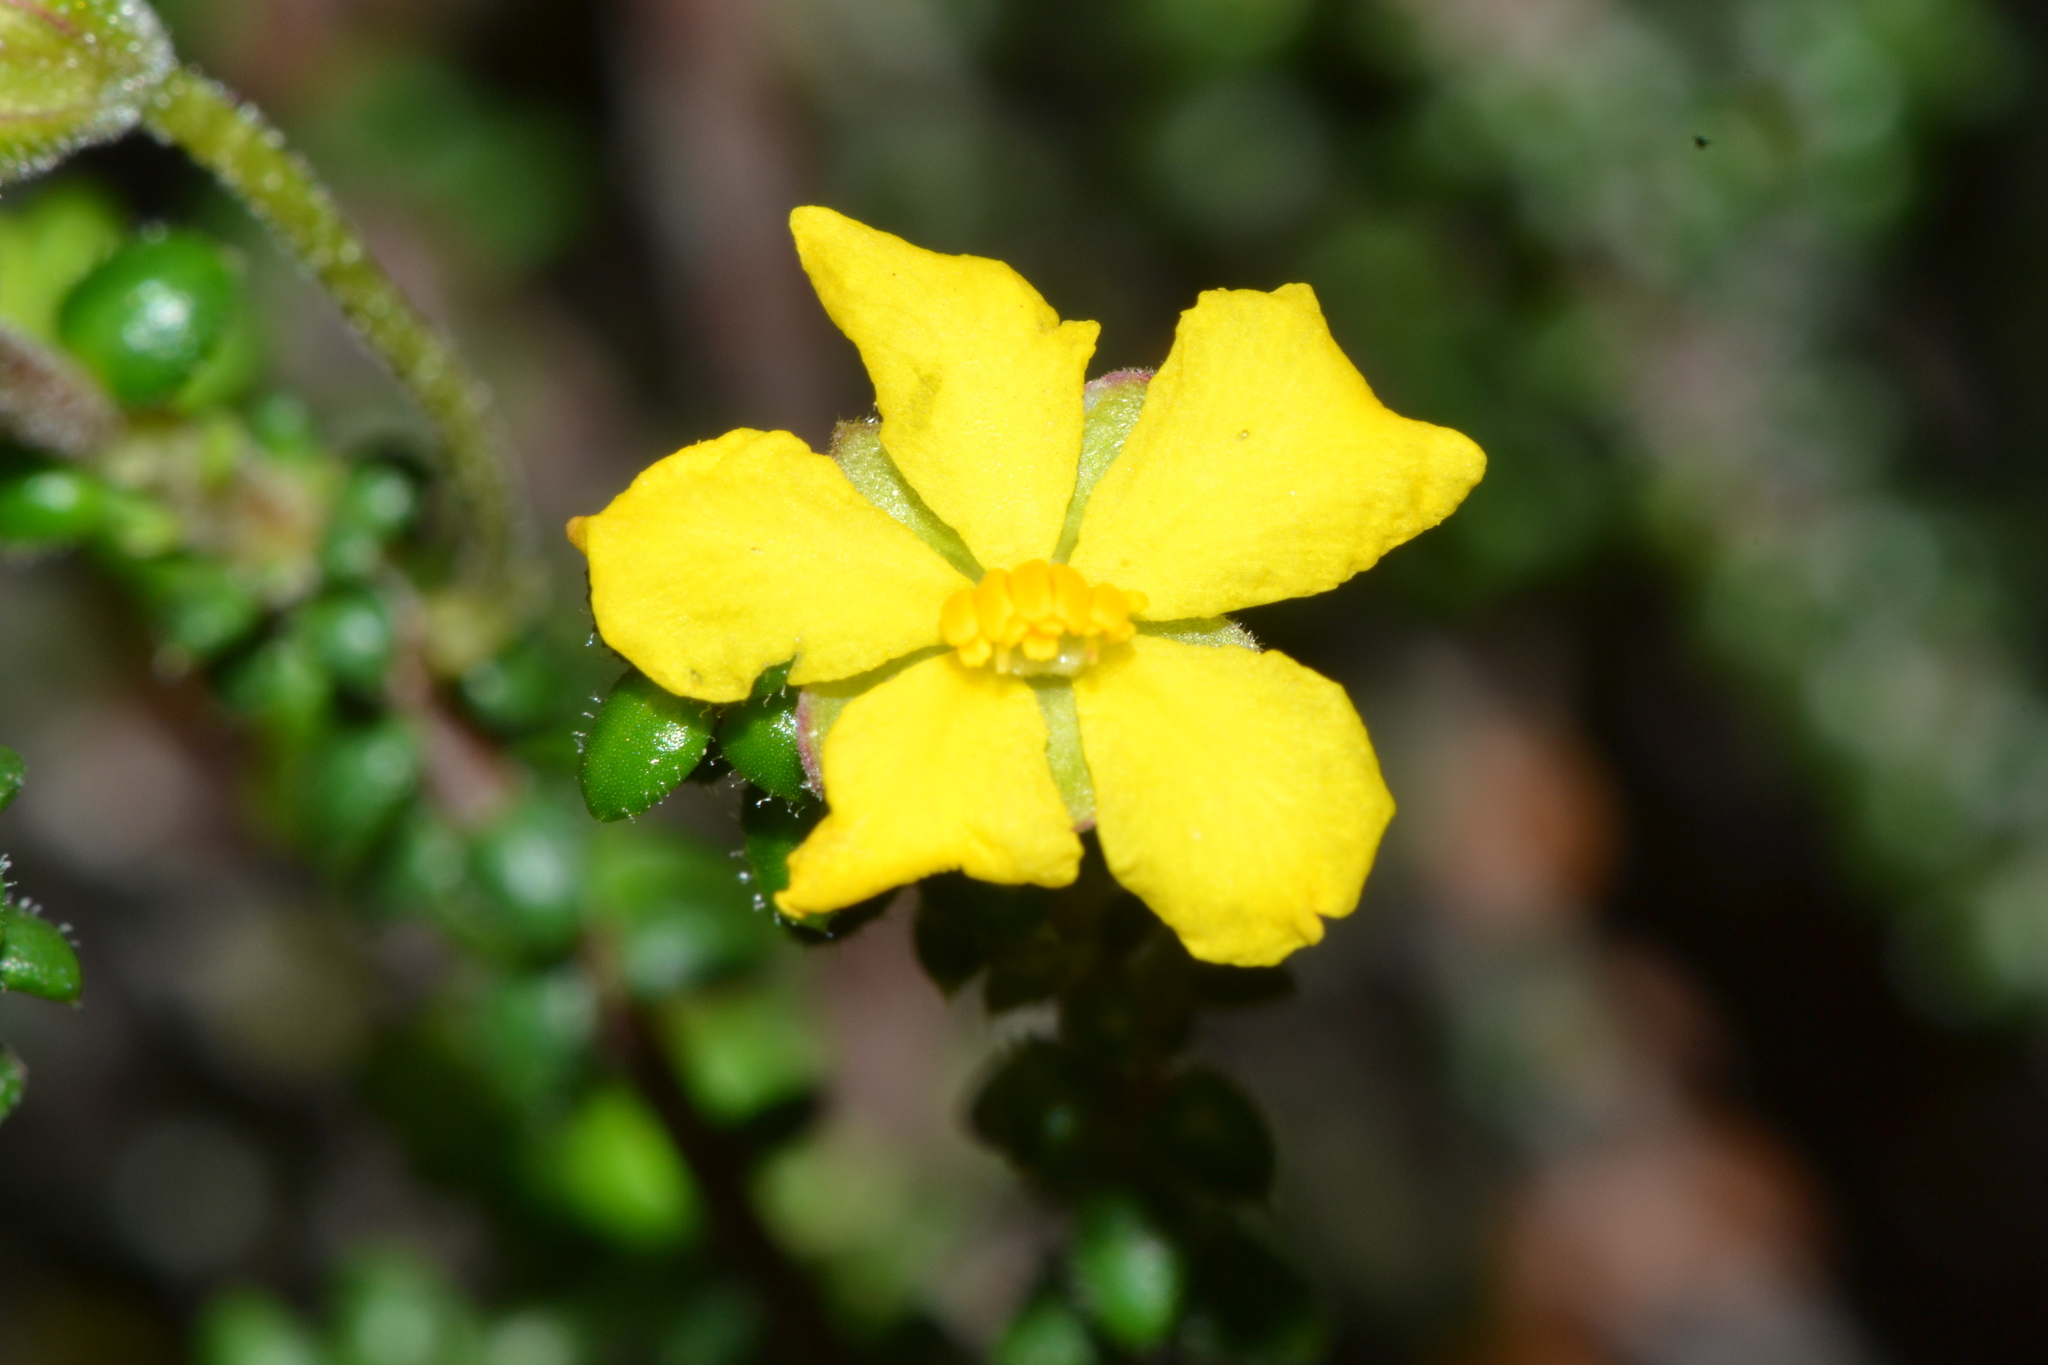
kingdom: Plantae
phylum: Tracheophyta
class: Magnoliopsida
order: Dilleniales
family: Dilleniaceae
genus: Hibbertia
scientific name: Hibbertia microphylla
